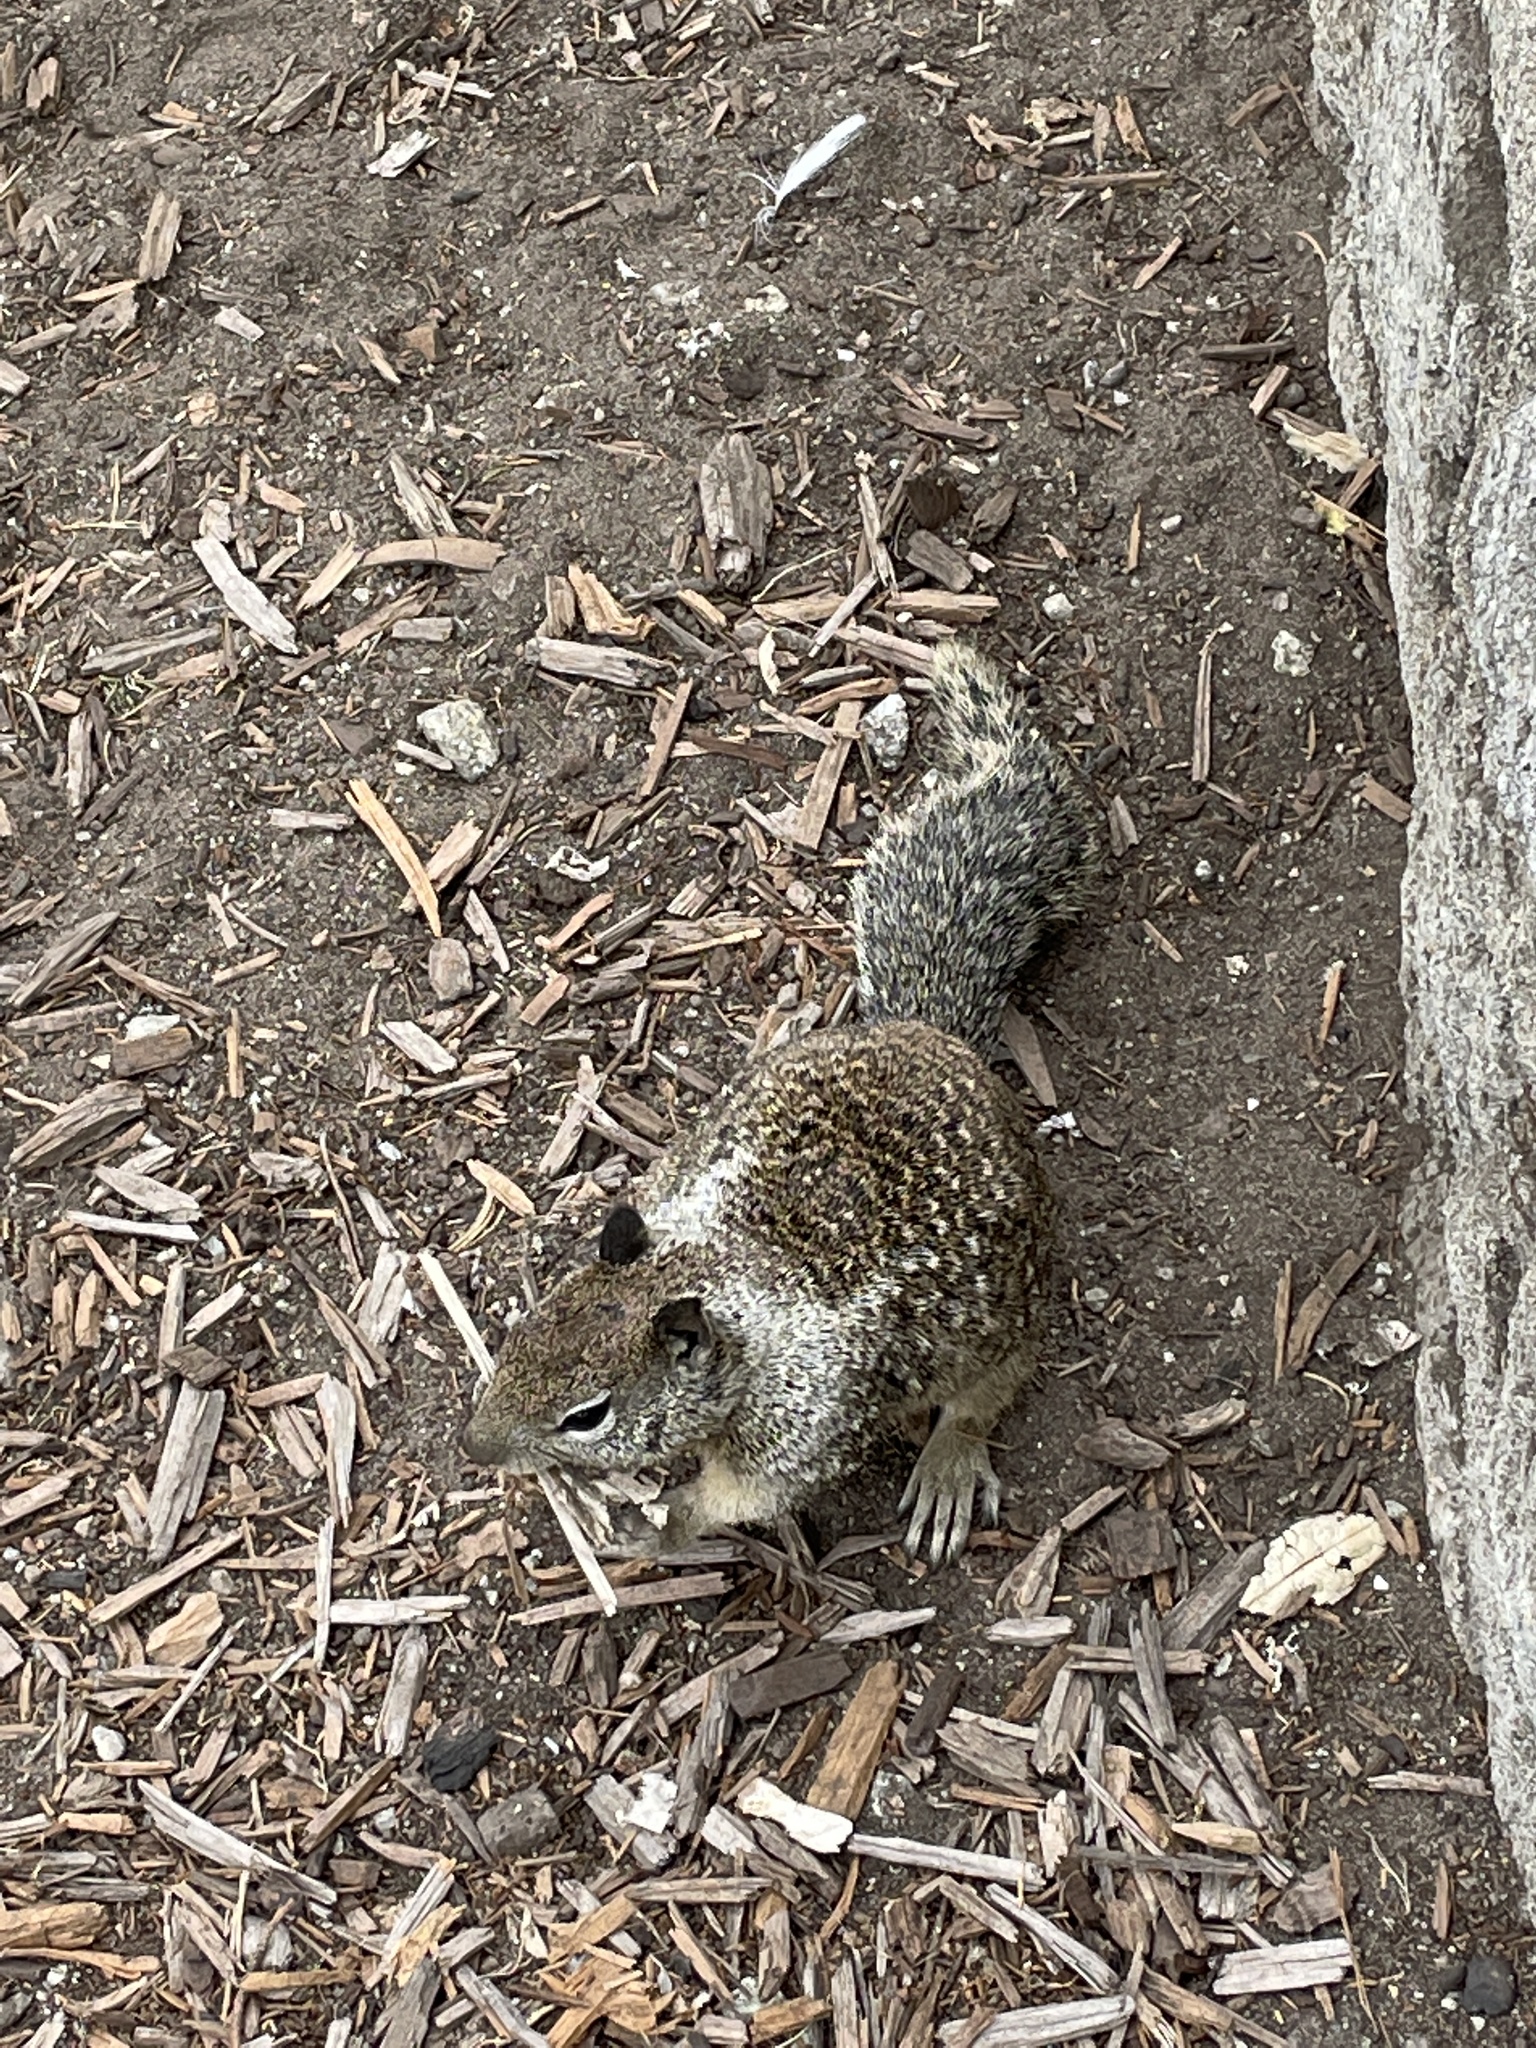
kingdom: Animalia
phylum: Chordata
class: Mammalia
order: Rodentia
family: Sciuridae
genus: Otospermophilus
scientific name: Otospermophilus beecheyi
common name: California ground squirrel
